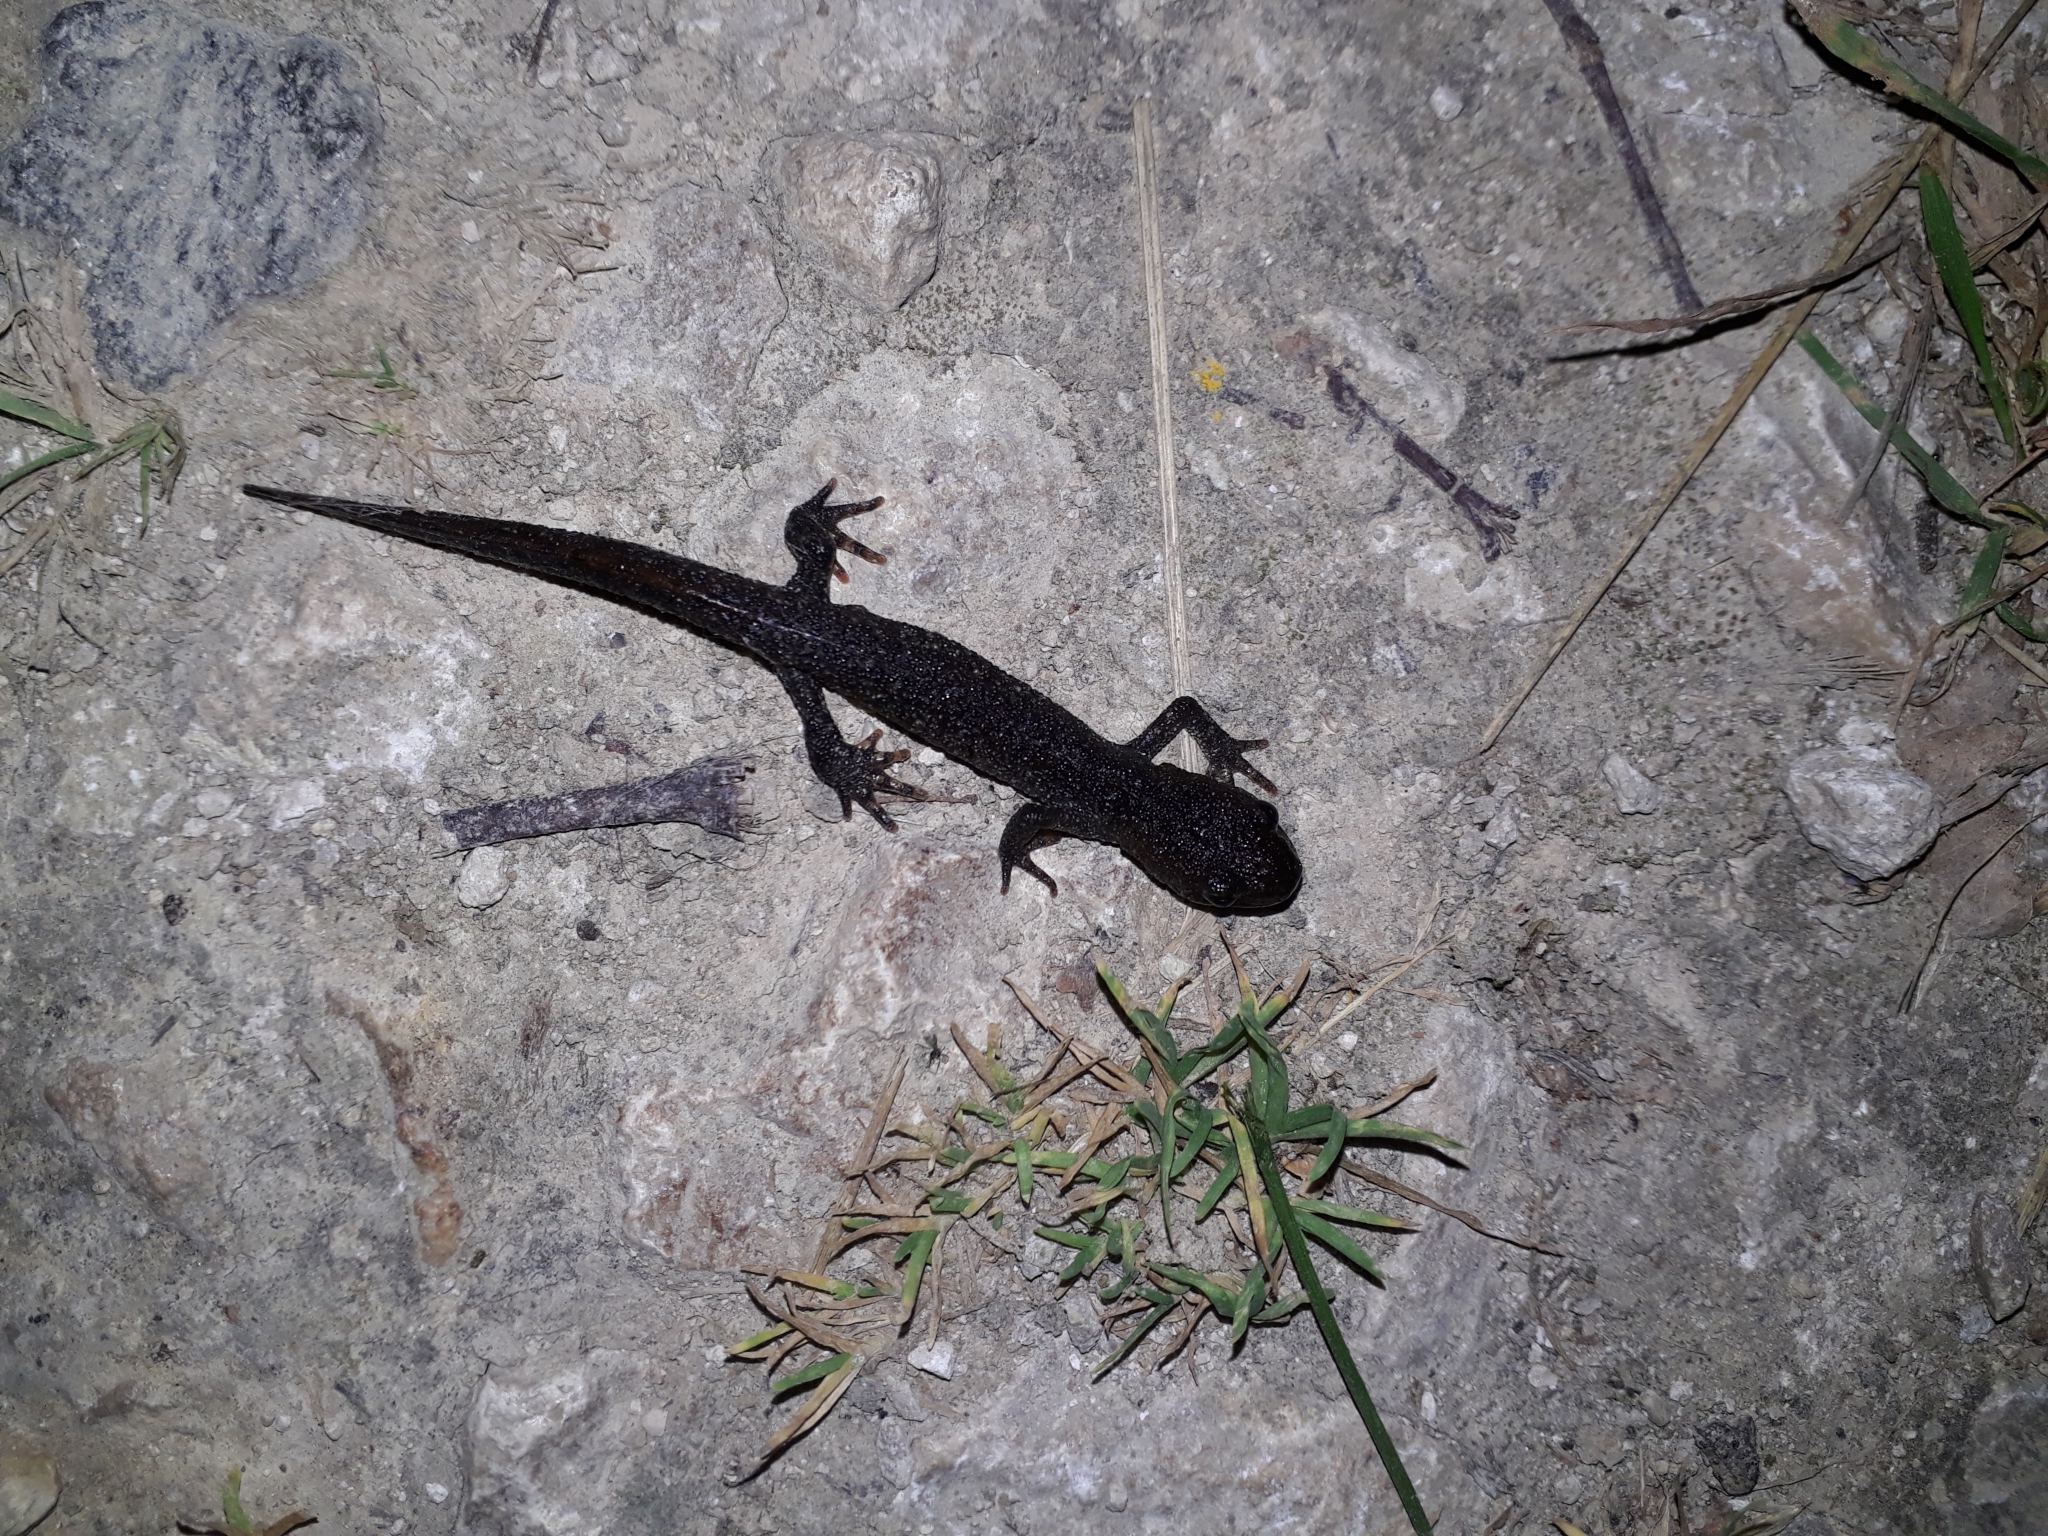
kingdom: Animalia
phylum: Chordata
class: Amphibia
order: Caudata
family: Salamandridae
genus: Triturus
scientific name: Triturus cristatus
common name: Crested newt
